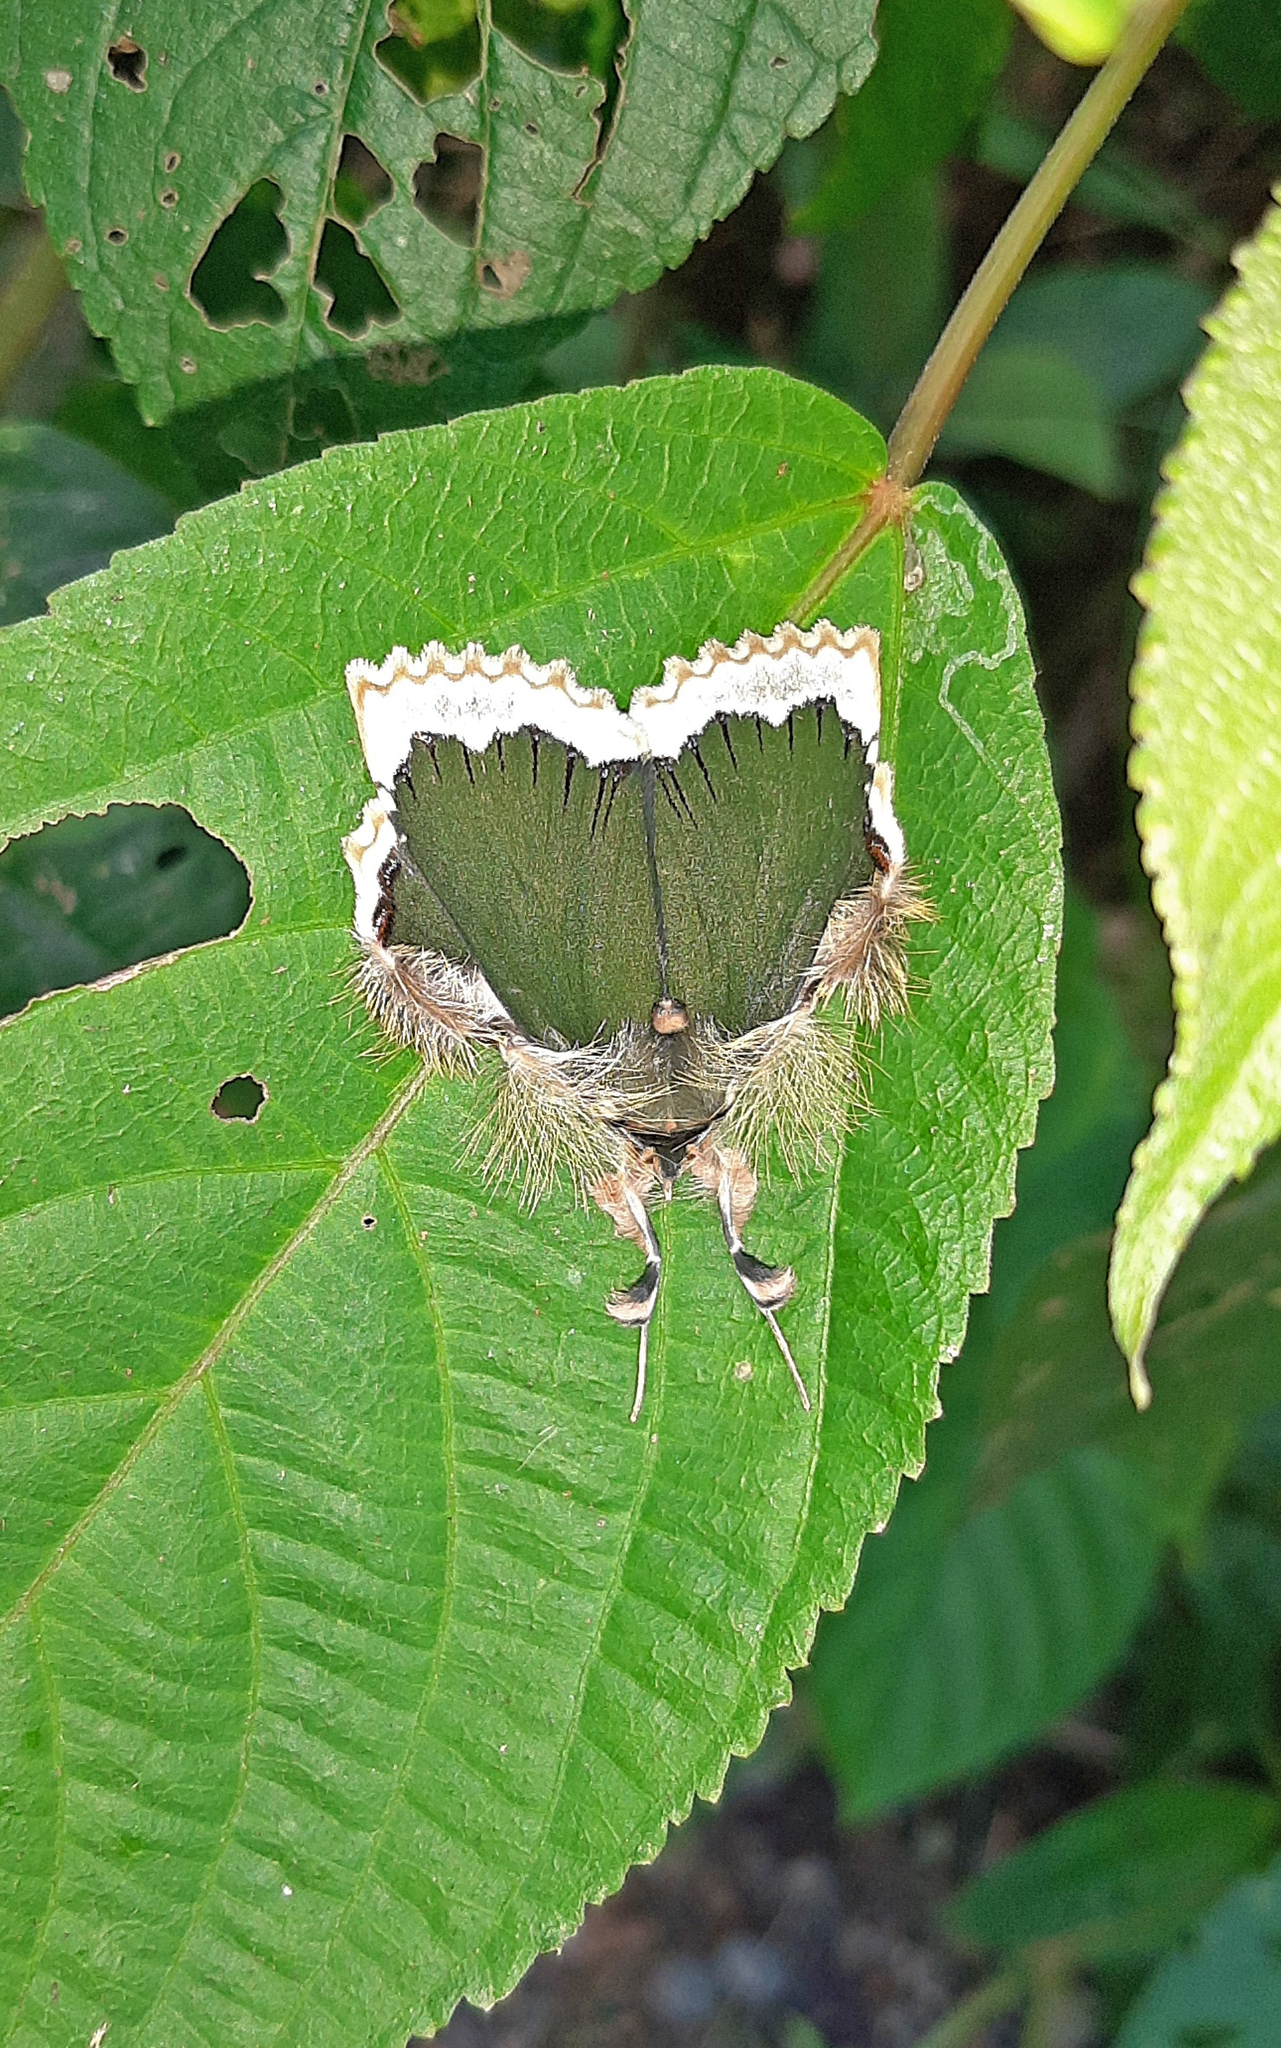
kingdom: Animalia
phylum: Arthropoda
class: Insecta
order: Lepidoptera
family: Erebidae
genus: Ceroctena
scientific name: Ceroctena amynta
